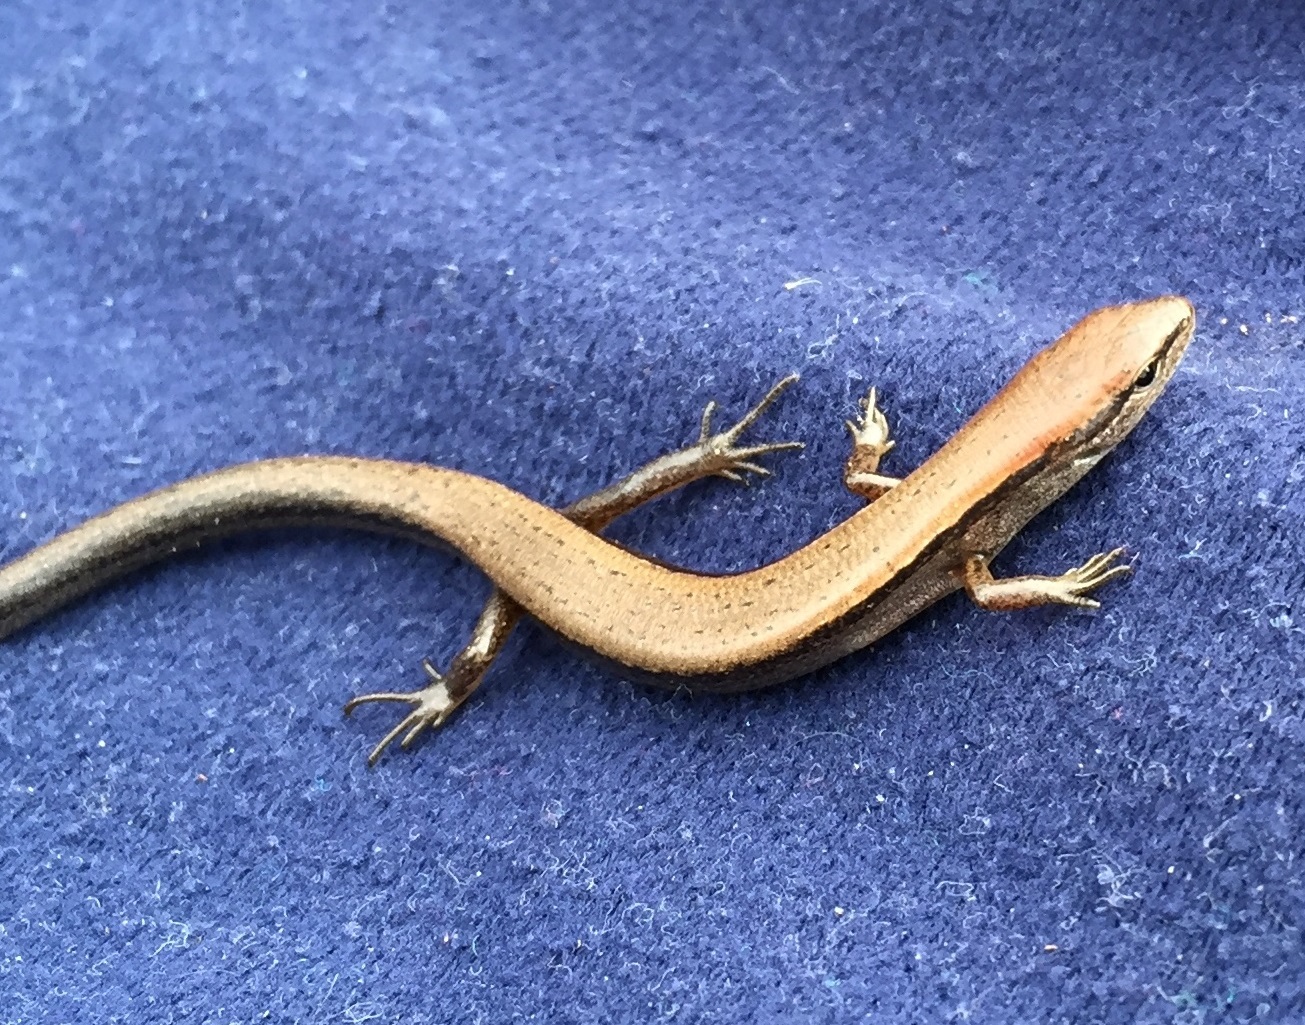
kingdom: Animalia
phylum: Chordata
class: Squamata
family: Scincidae
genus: Scincella
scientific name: Scincella lateralis
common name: Ground skink
